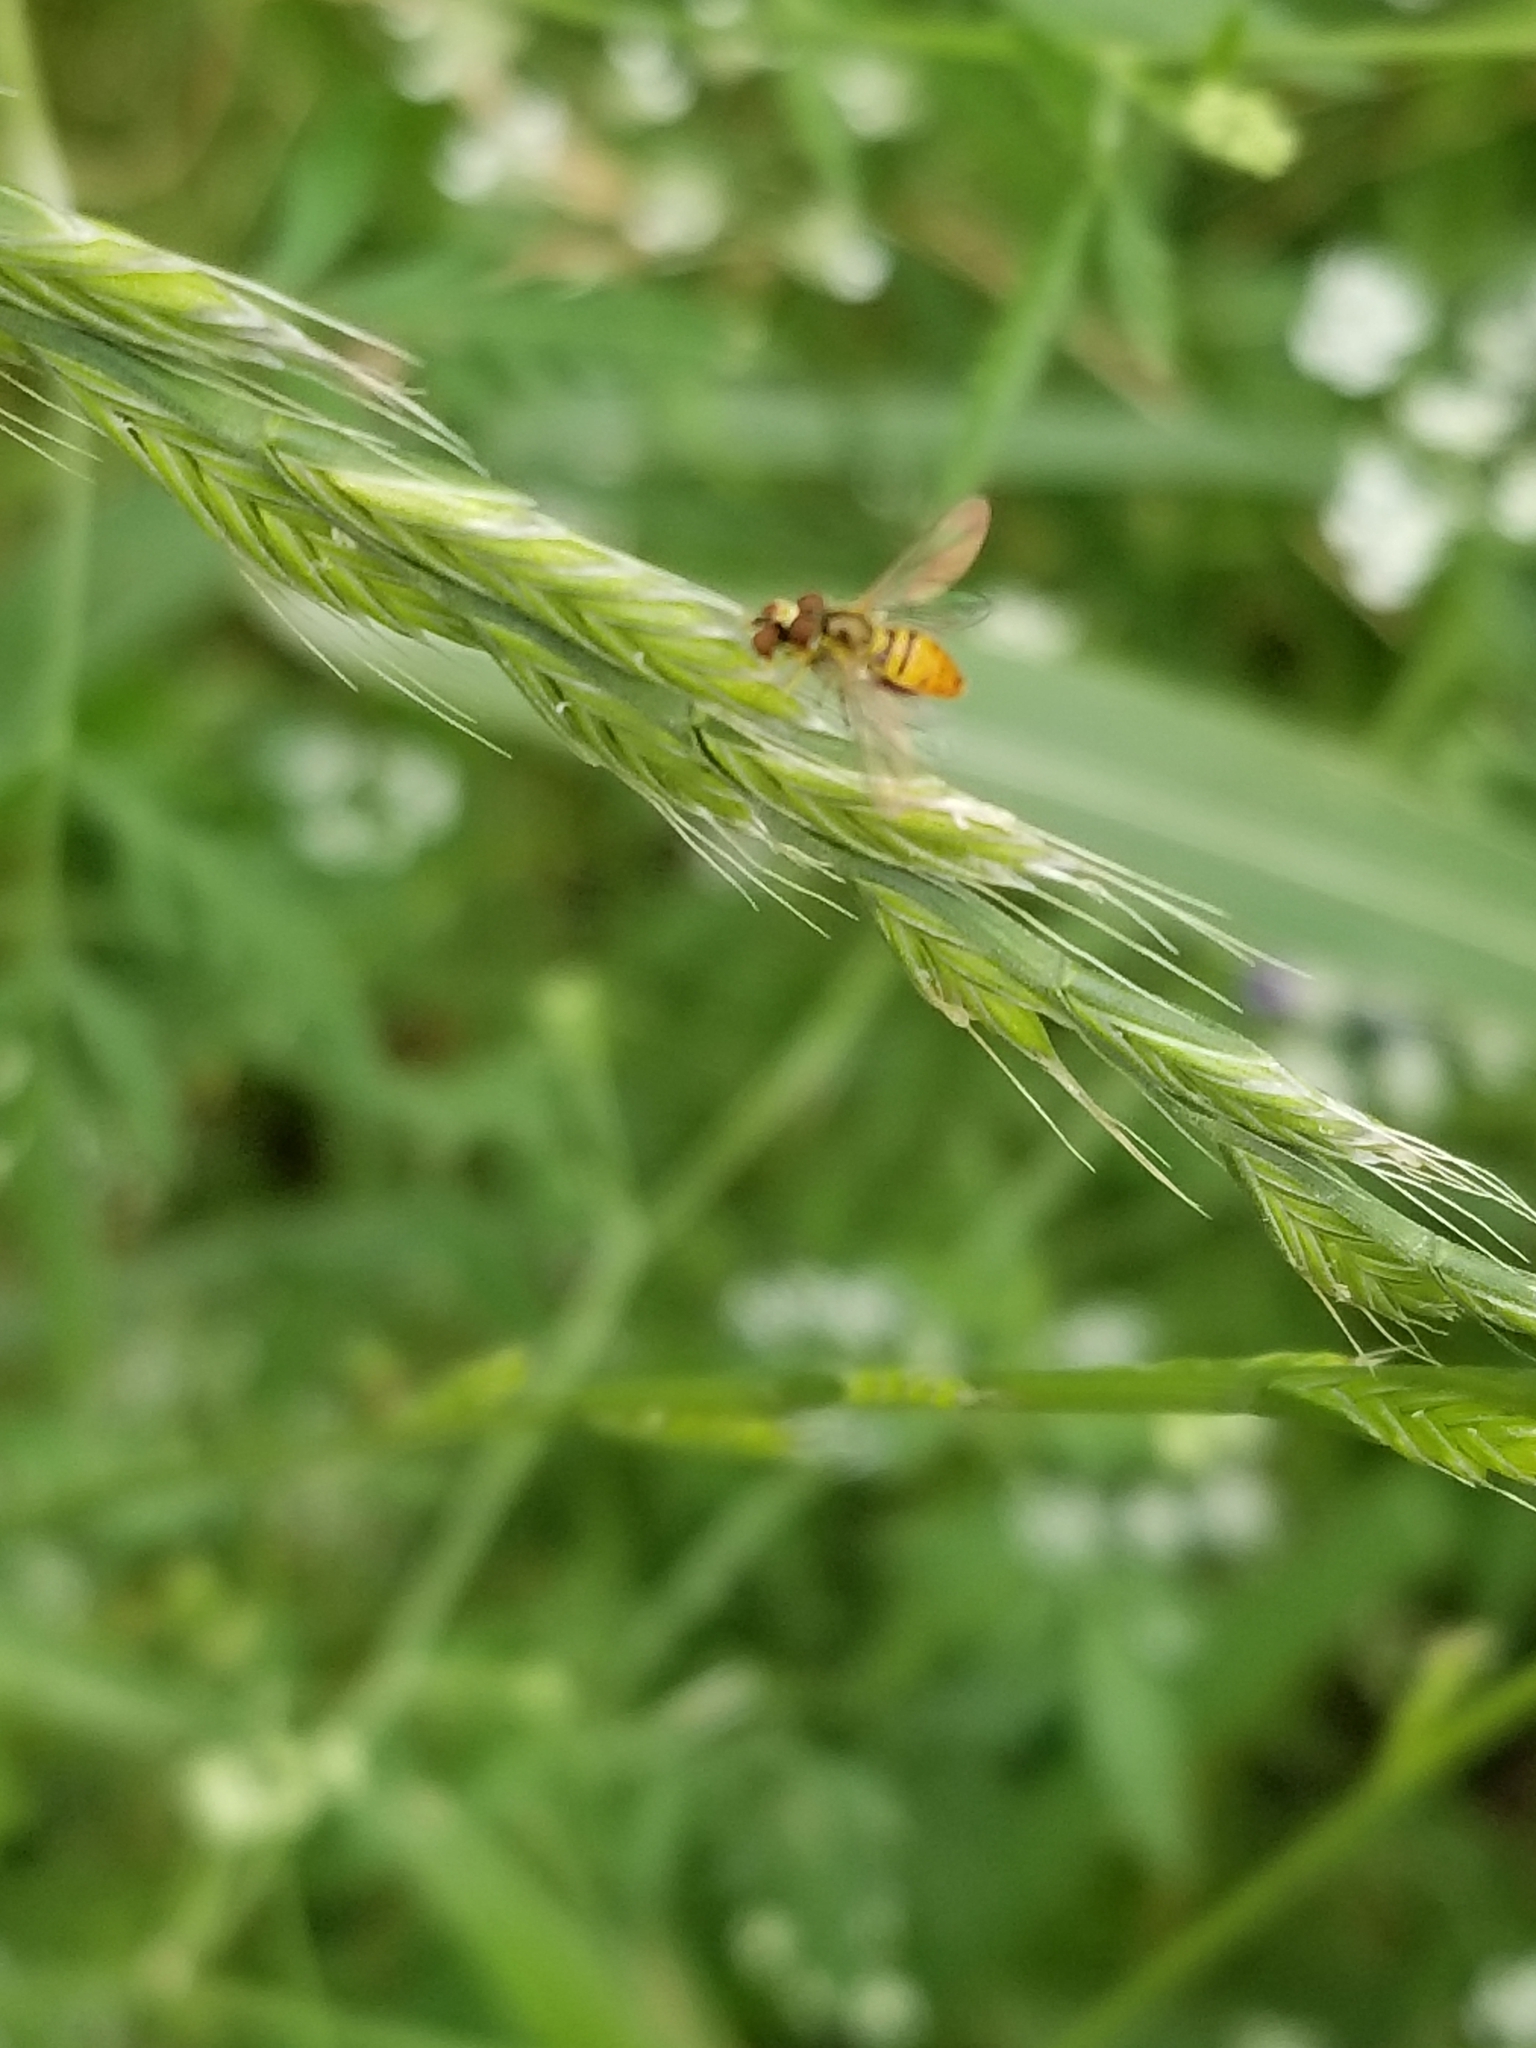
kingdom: Animalia
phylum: Arthropoda
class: Insecta
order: Diptera
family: Syrphidae
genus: Toxomerus
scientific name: Toxomerus marginatus
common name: Syrphid fly
